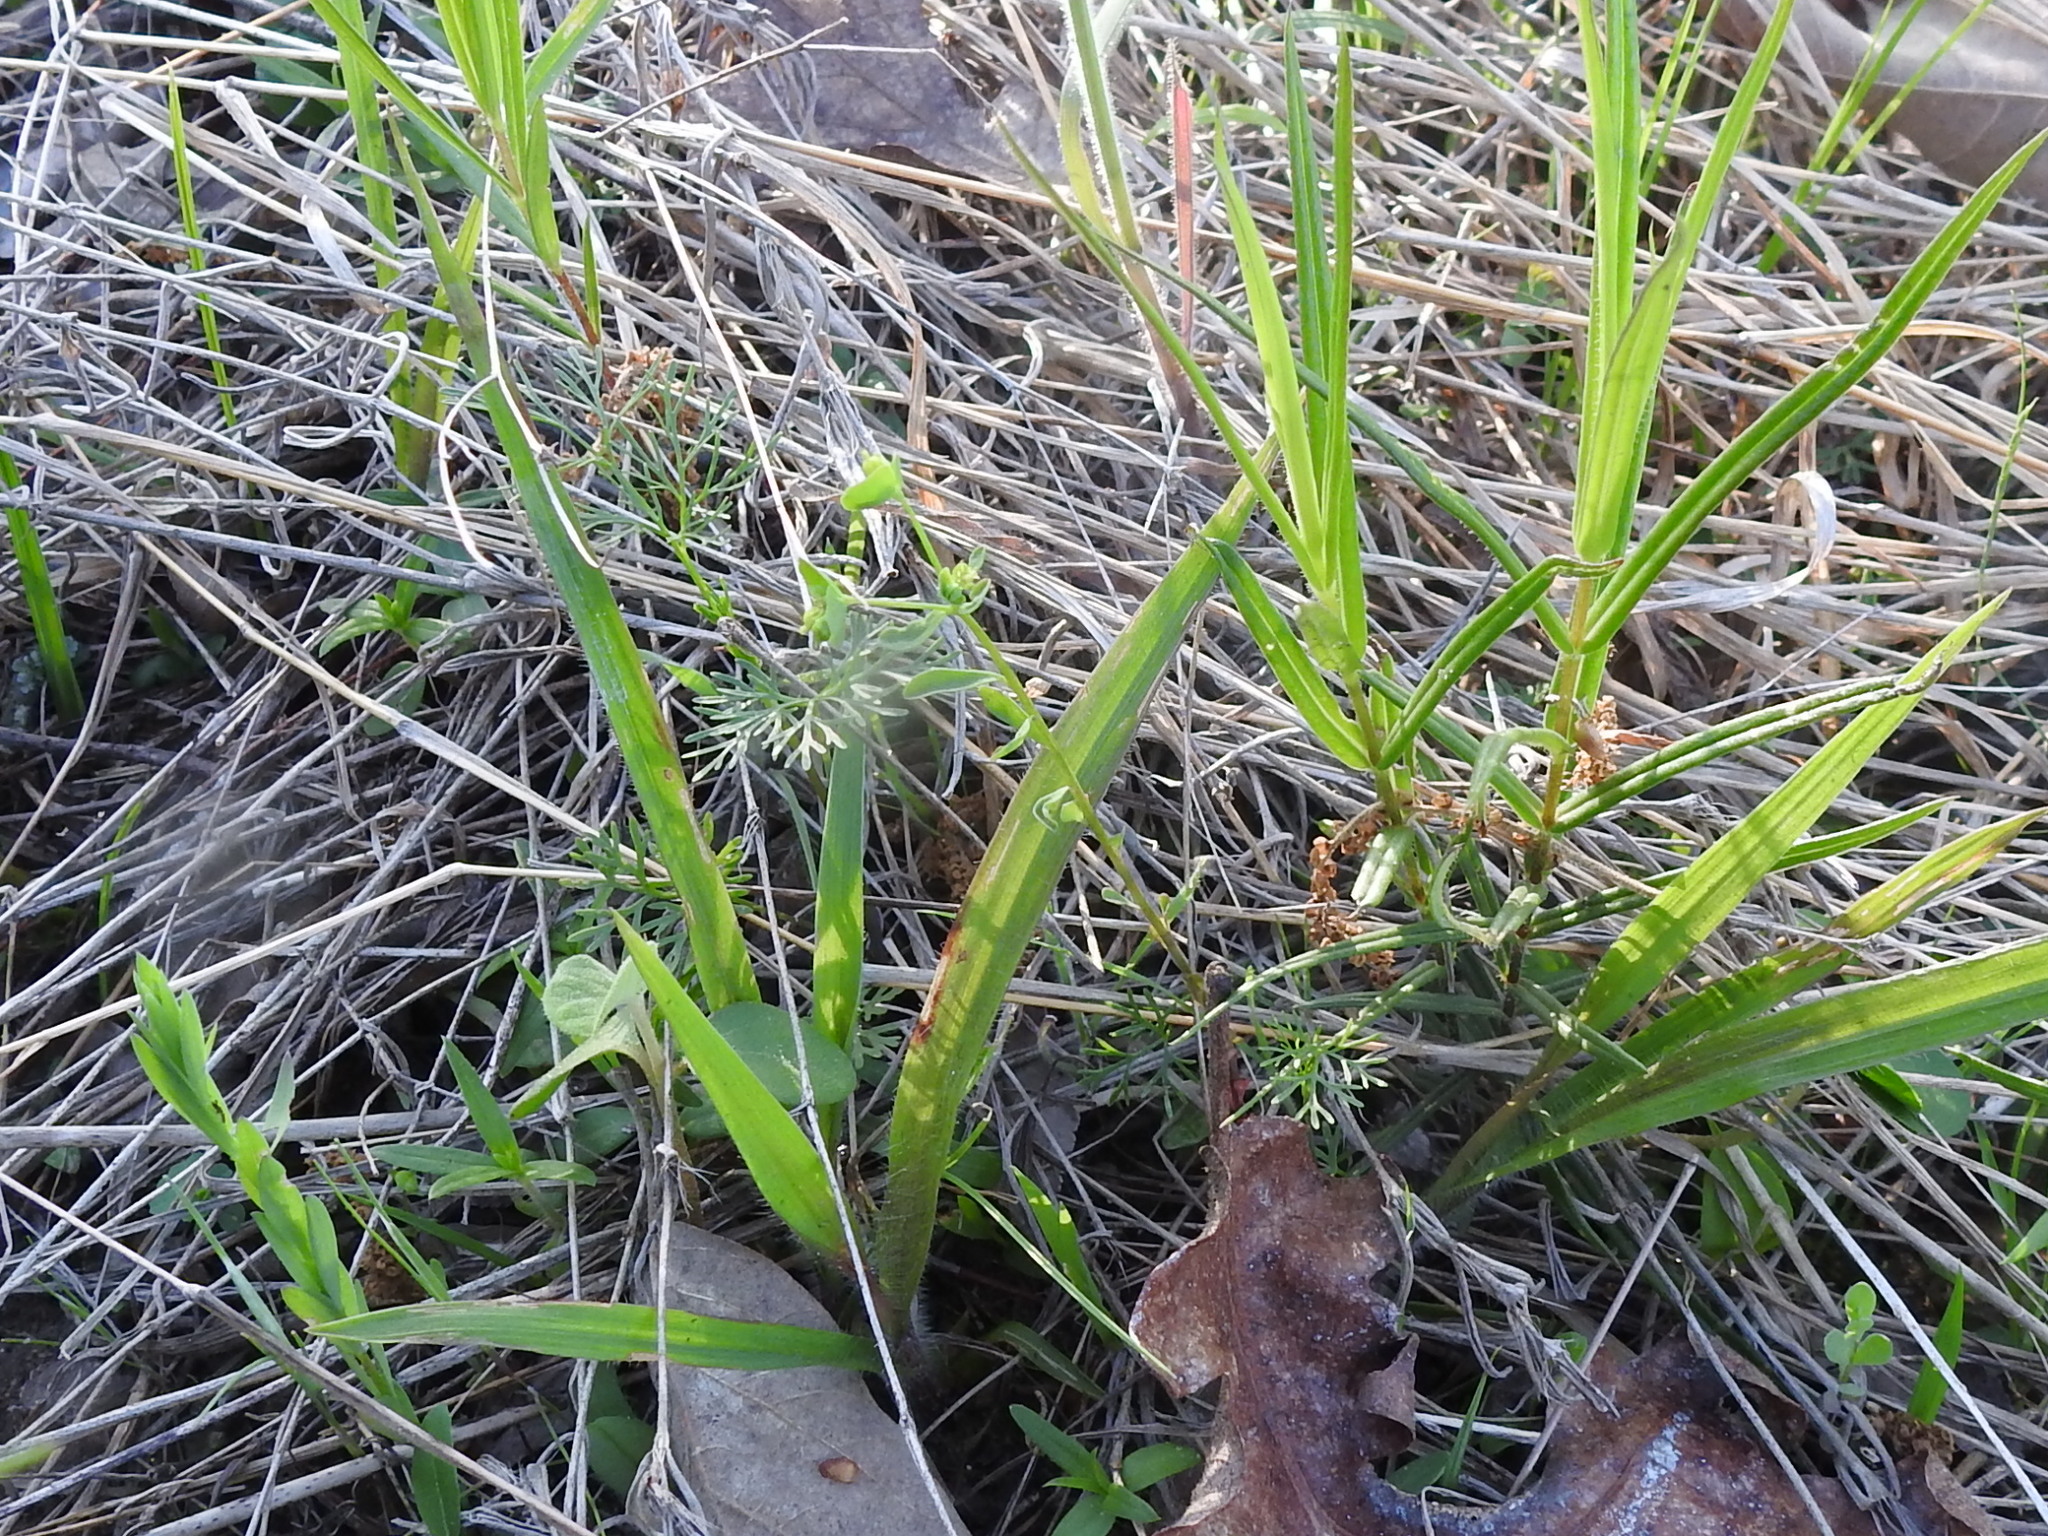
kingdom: Plantae
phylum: Tracheophyta
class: Magnoliopsida
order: Malpighiales
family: Euphorbiaceae
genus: Euphorbia
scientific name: Euphorbia tetrapora
